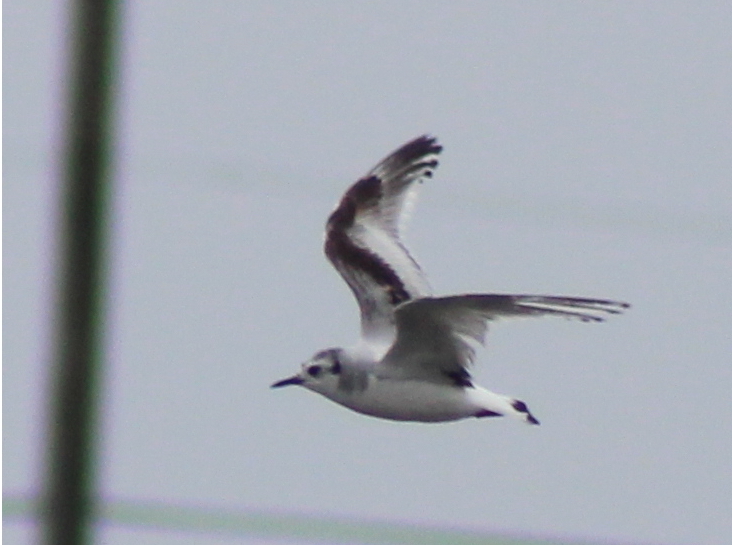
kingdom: Animalia
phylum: Chordata
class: Aves
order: Charadriiformes
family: Laridae
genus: Hydrocoloeus
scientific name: Hydrocoloeus minutus
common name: Little gull
